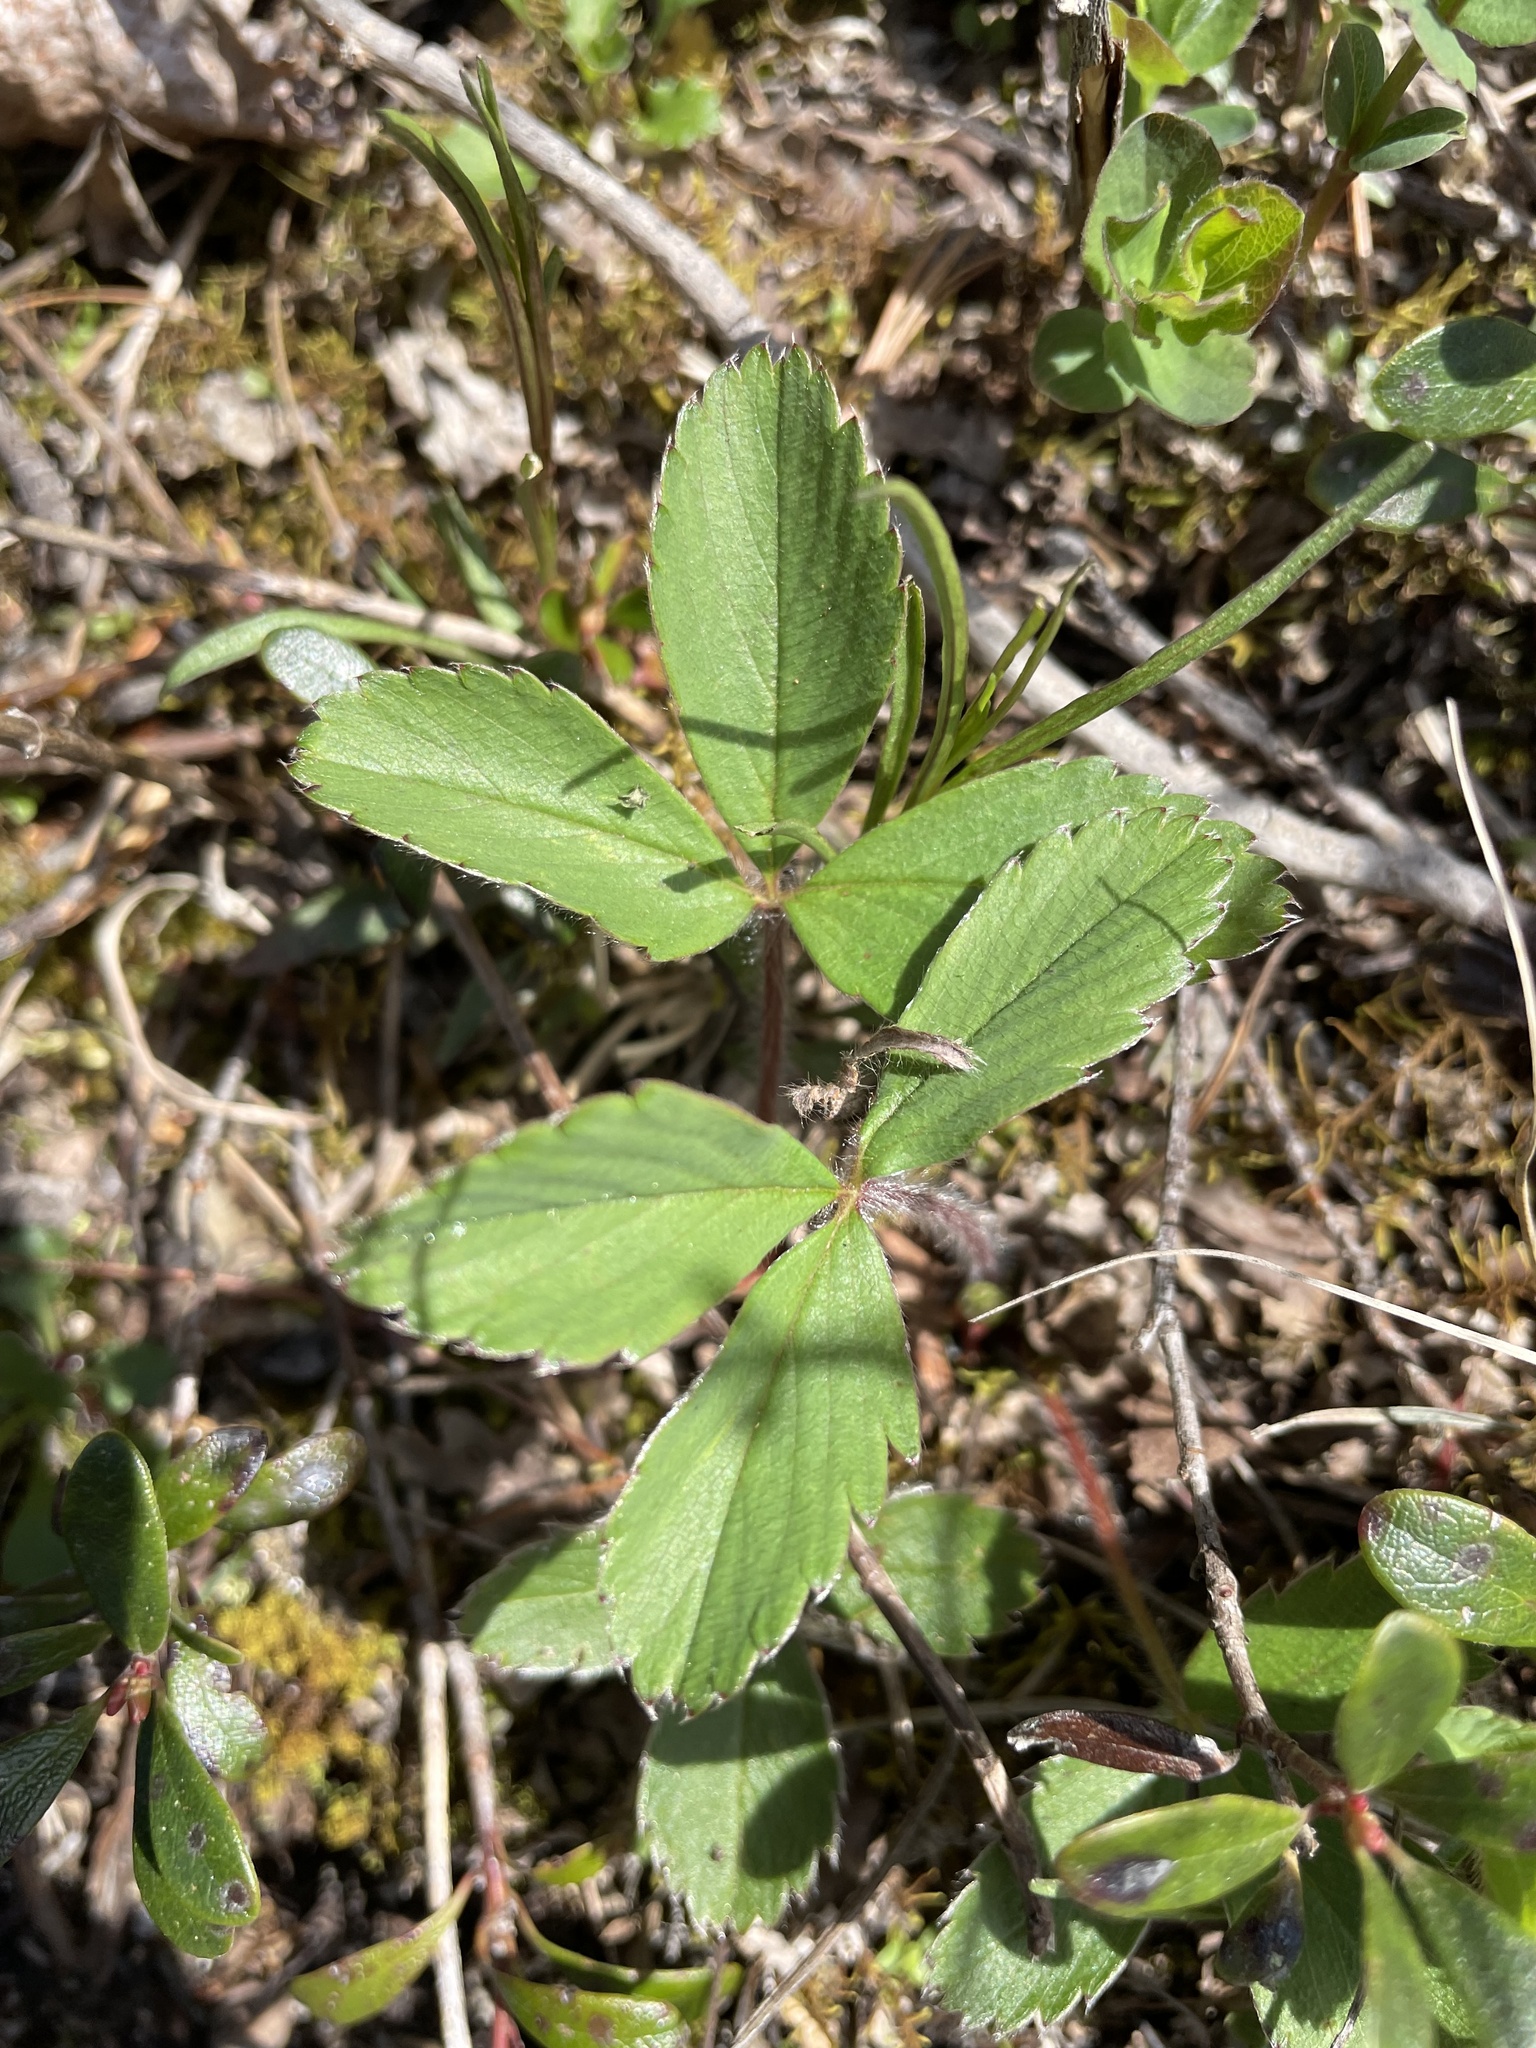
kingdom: Plantae
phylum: Tracheophyta
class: Magnoliopsida
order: Rosales
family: Rosaceae
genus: Fragaria
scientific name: Fragaria virginiana
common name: Thickleaved wild strawberry
